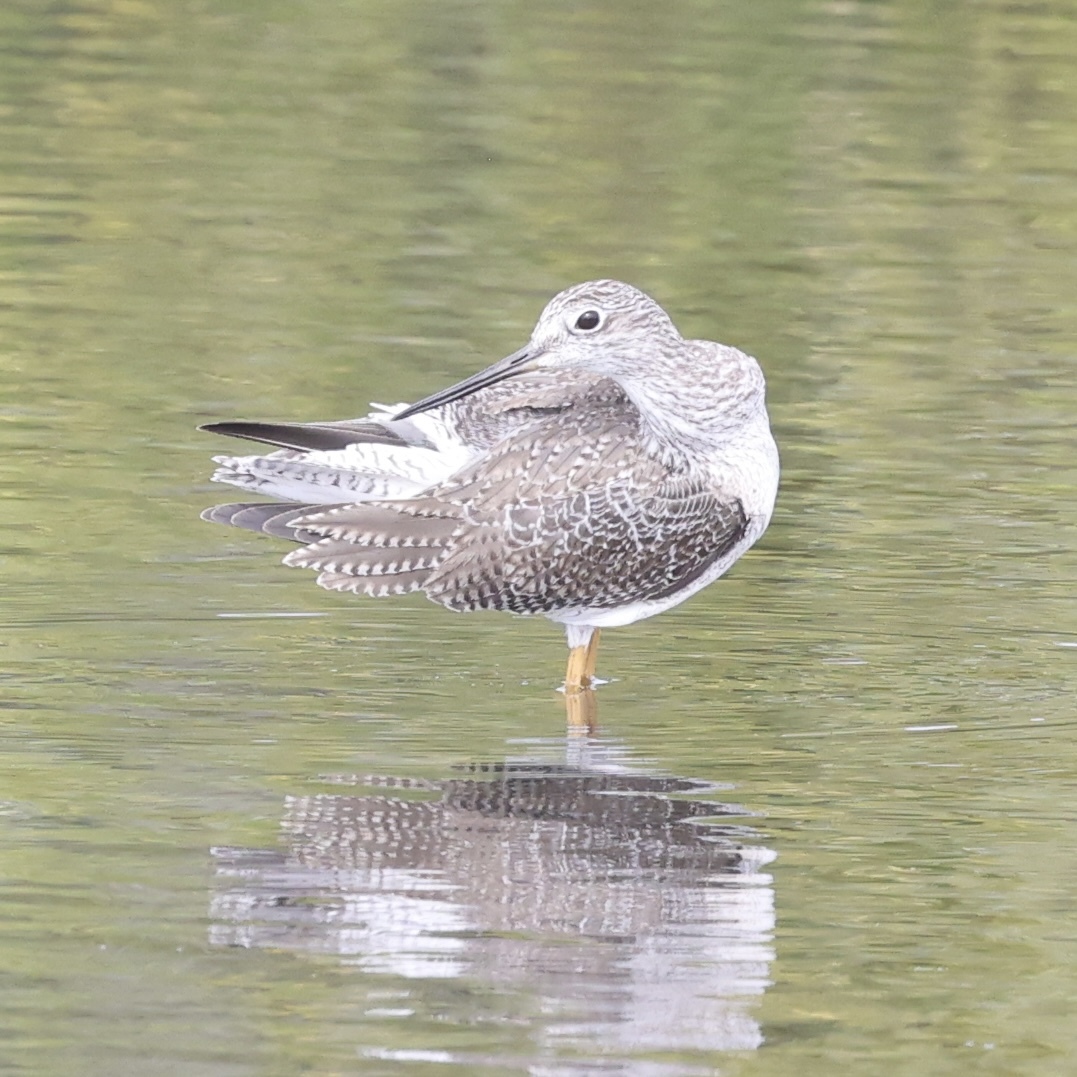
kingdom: Animalia
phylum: Chordata
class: Aves
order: Charadriiformes
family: Scolopacidae
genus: Tringa
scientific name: Tringa melanoleuca
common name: Greater yellowlegs
